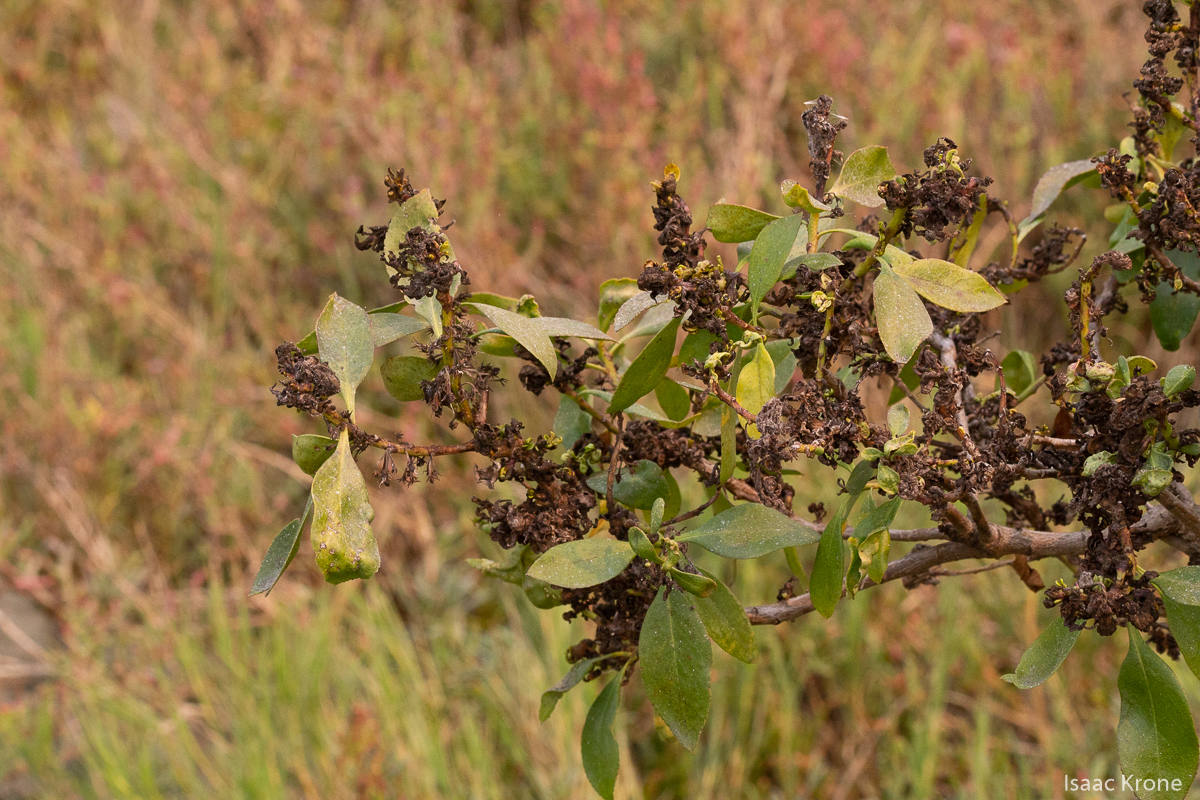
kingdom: Plantae
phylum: Tracheophyta
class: Magnoliopsida
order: Lamiales
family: Scrophulariaceae
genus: Myoporum
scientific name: Myoporum laetum
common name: Ngaio tree
